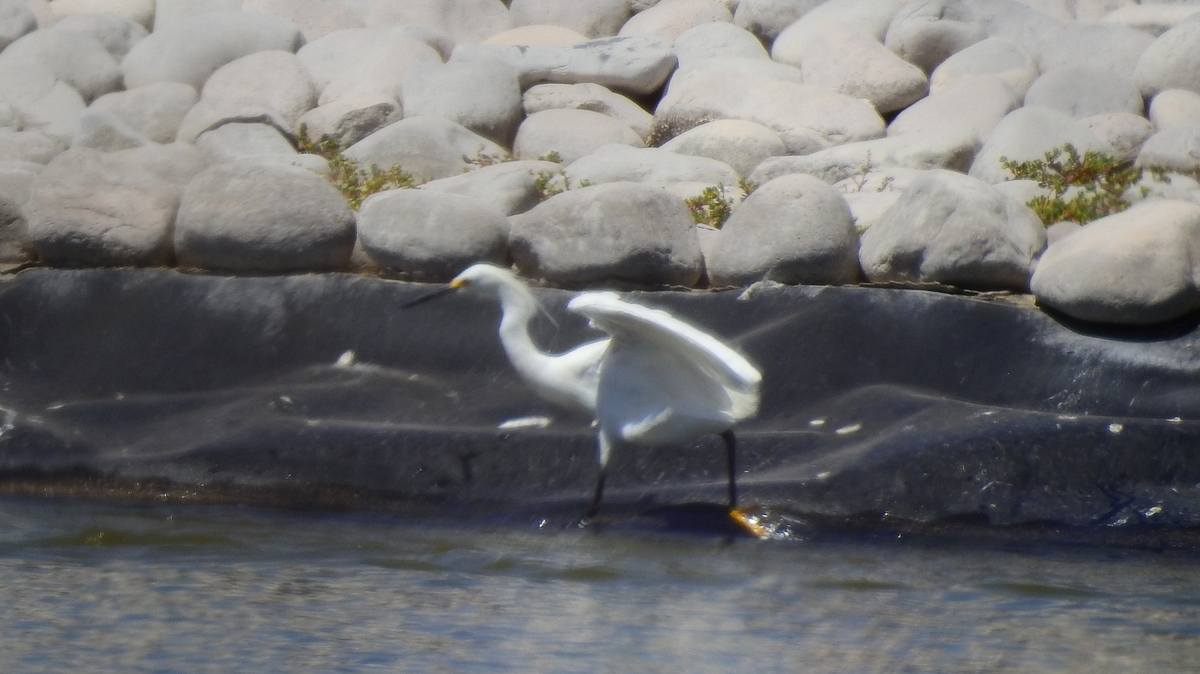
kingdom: Animalia
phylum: Chordata
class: Aves
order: Pelecaniformes
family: Ardeidae
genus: Egretta
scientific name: Egretta thula
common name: Snowy egret
